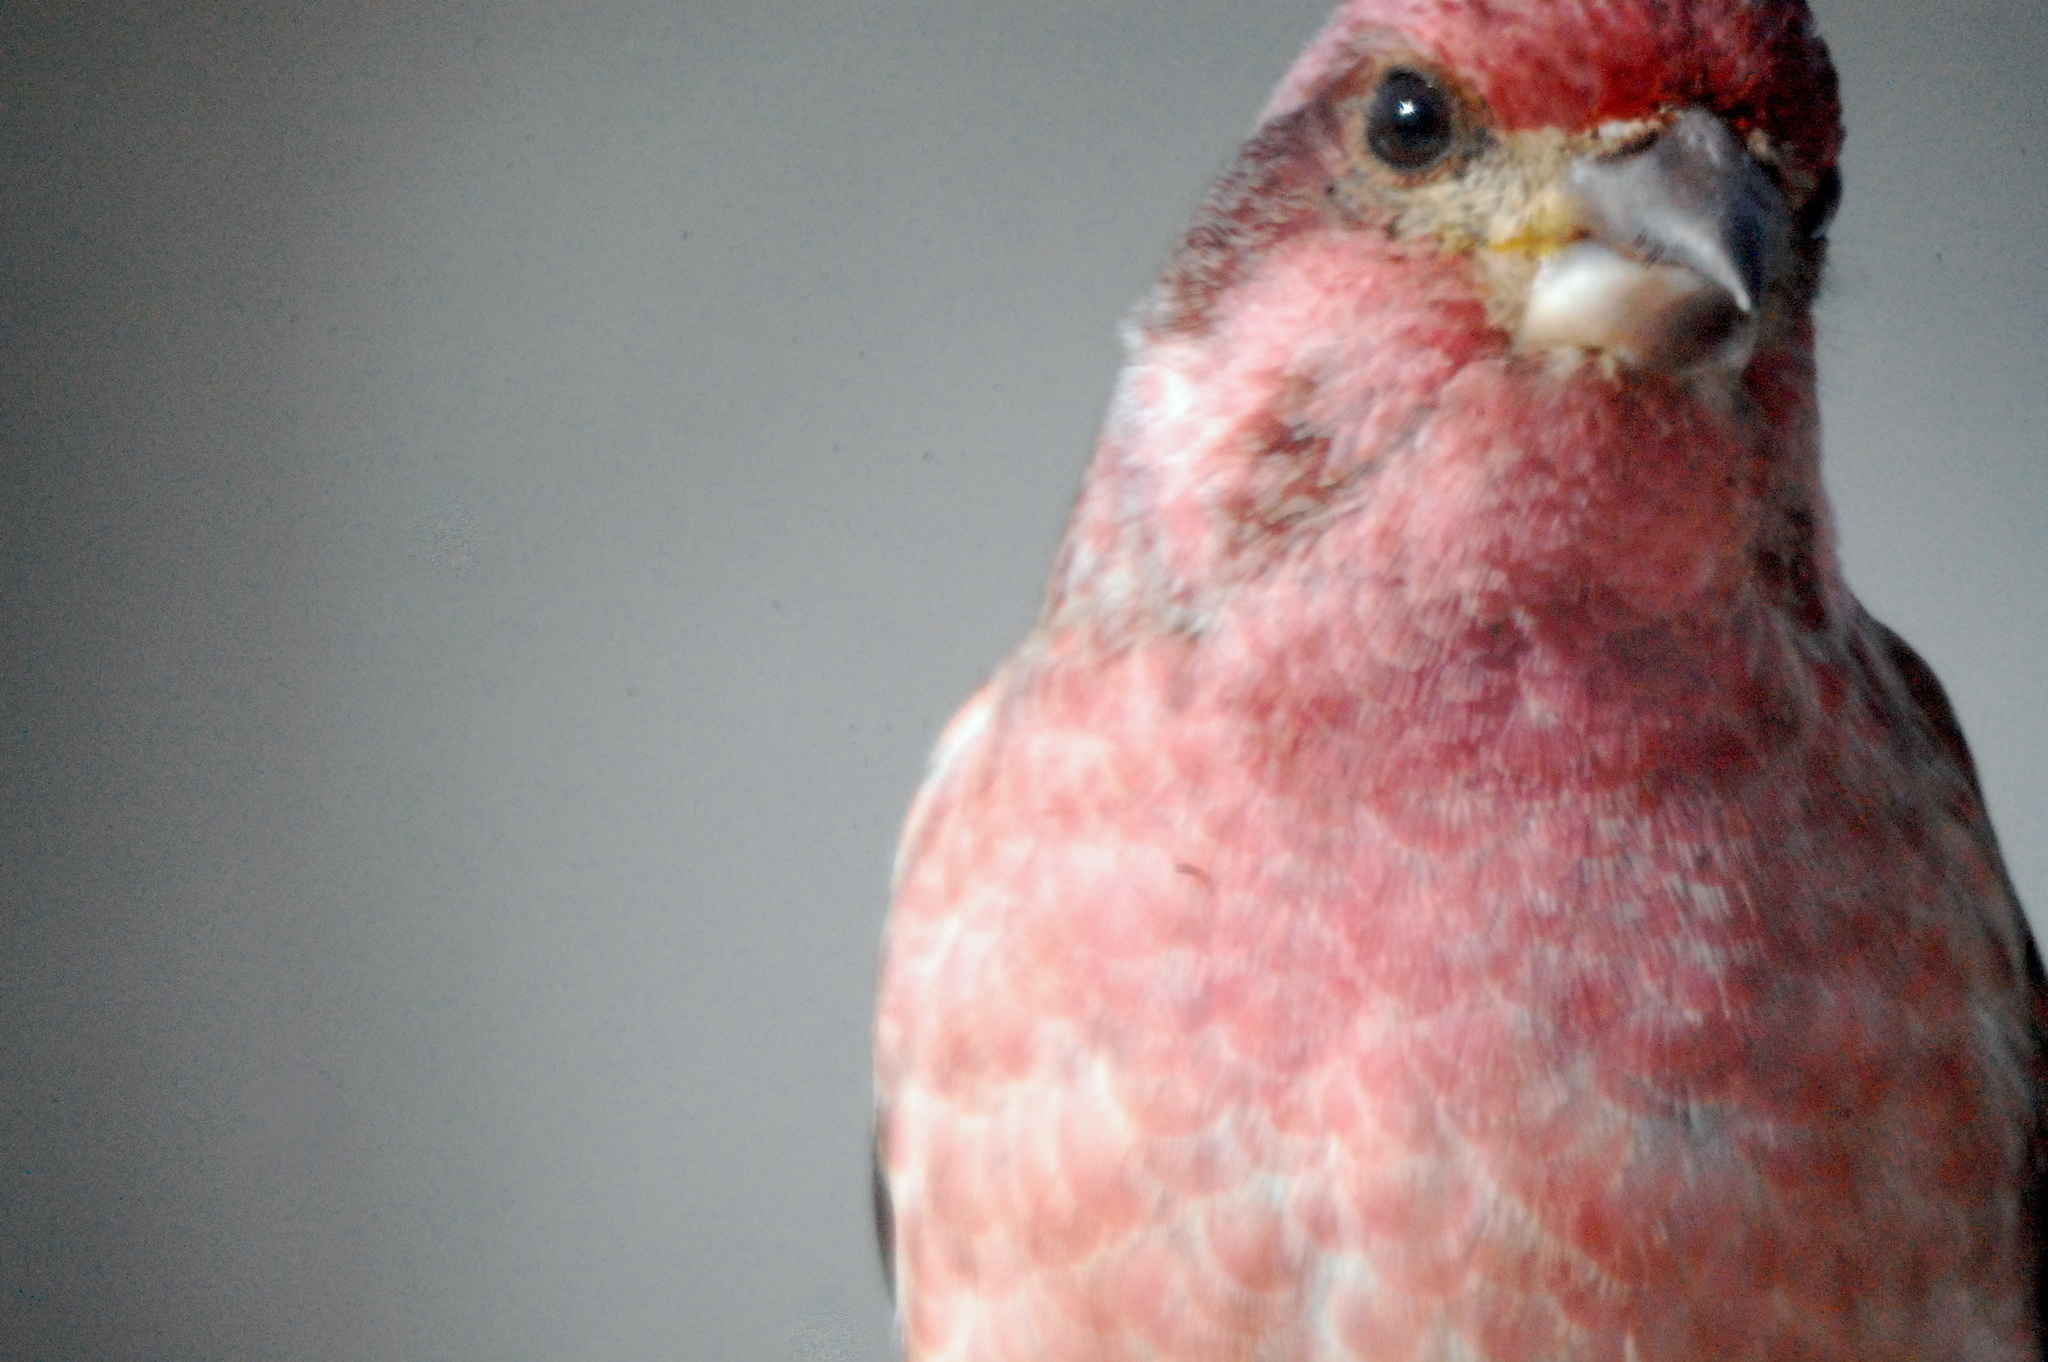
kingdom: Animalia
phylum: Chordata
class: Aves
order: Passeriformes
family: Fringillidae
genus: Haemorhous
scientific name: Haemorhous purpureus
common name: Purple finch
